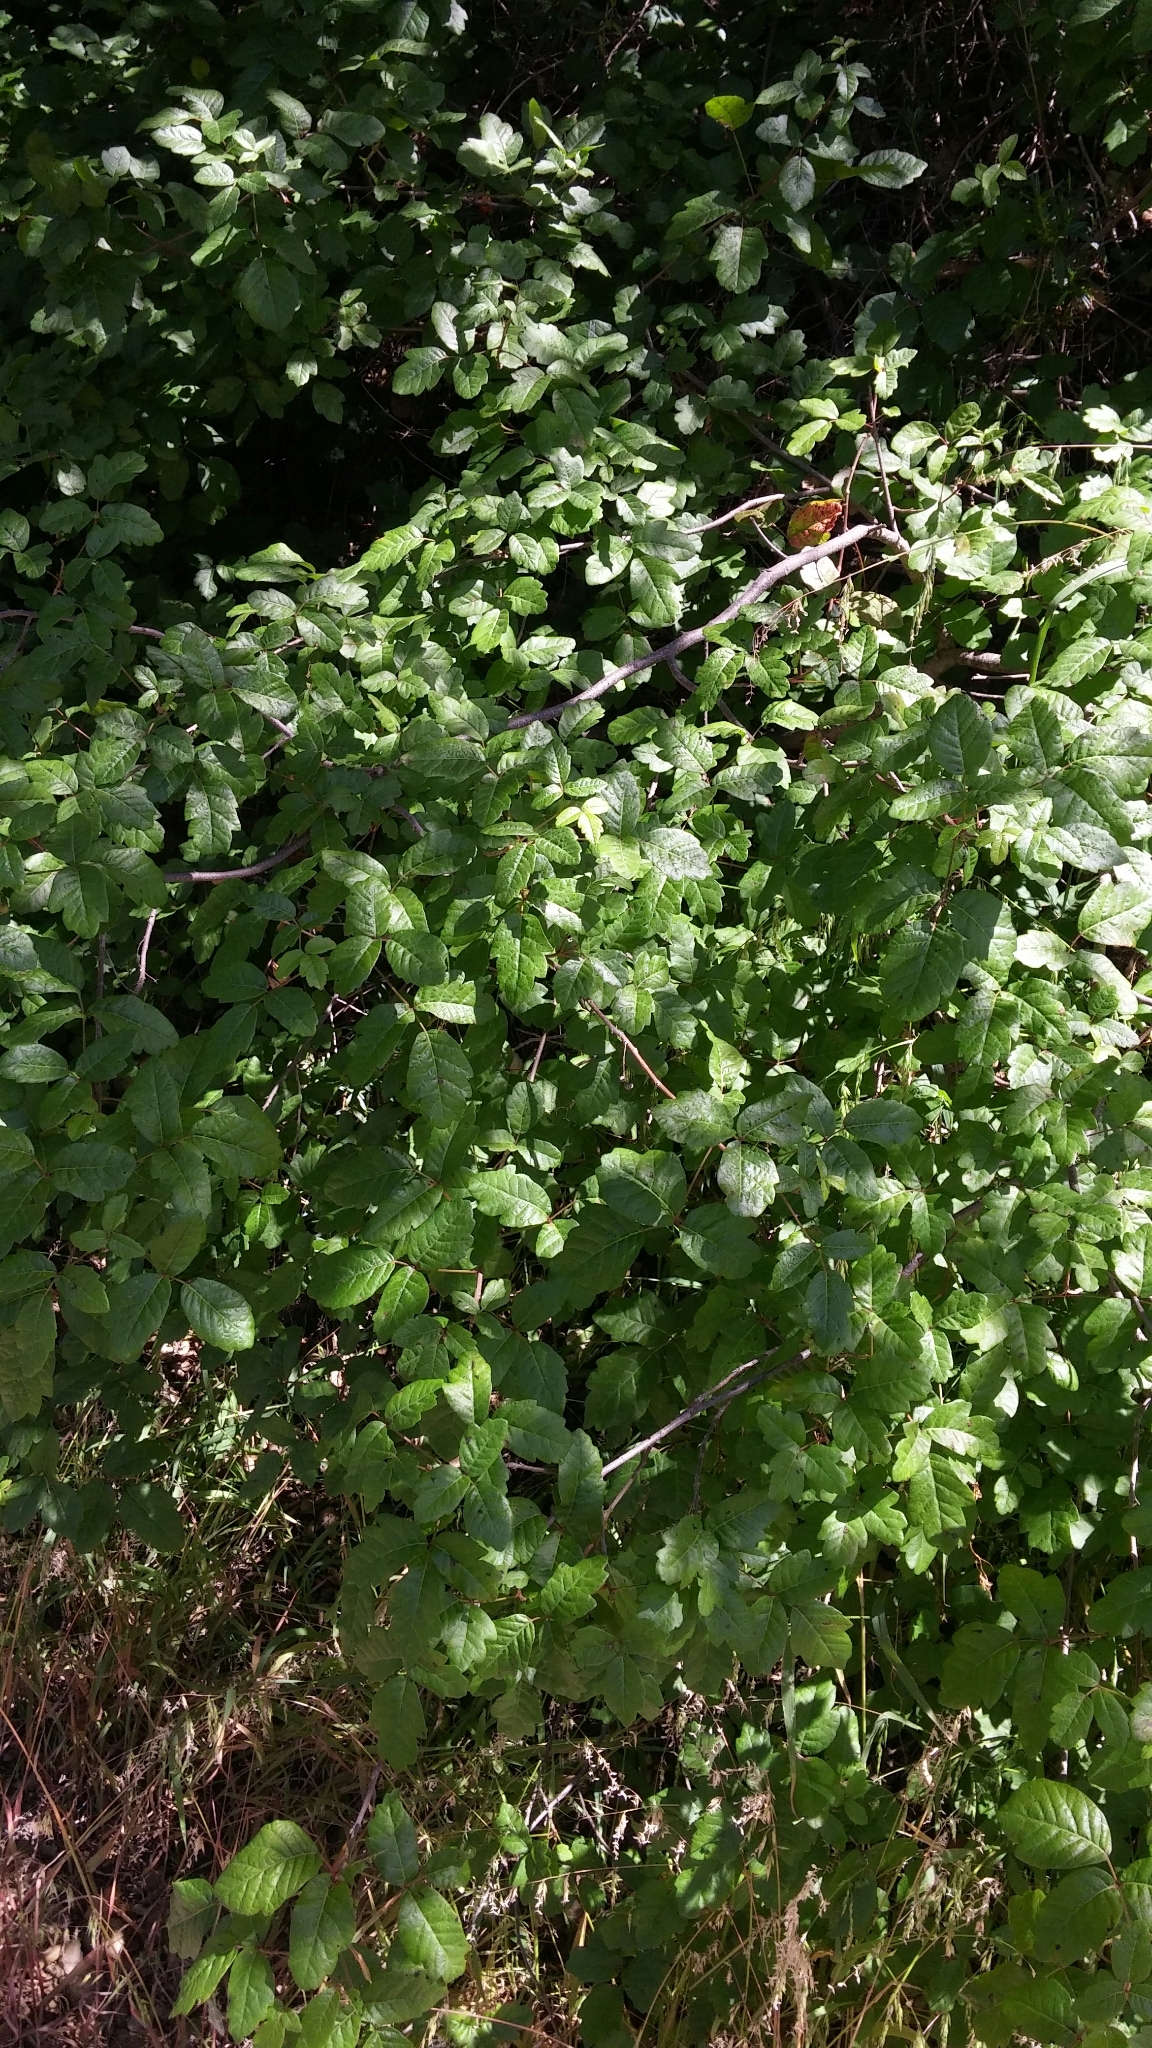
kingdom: Plantae
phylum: Tracheophyta
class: Magnoliopsida
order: Sapindales
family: Anacardiaceae
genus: Toxicodendron
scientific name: Toxicodendron diversilobum
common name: Pacific poison-oak
